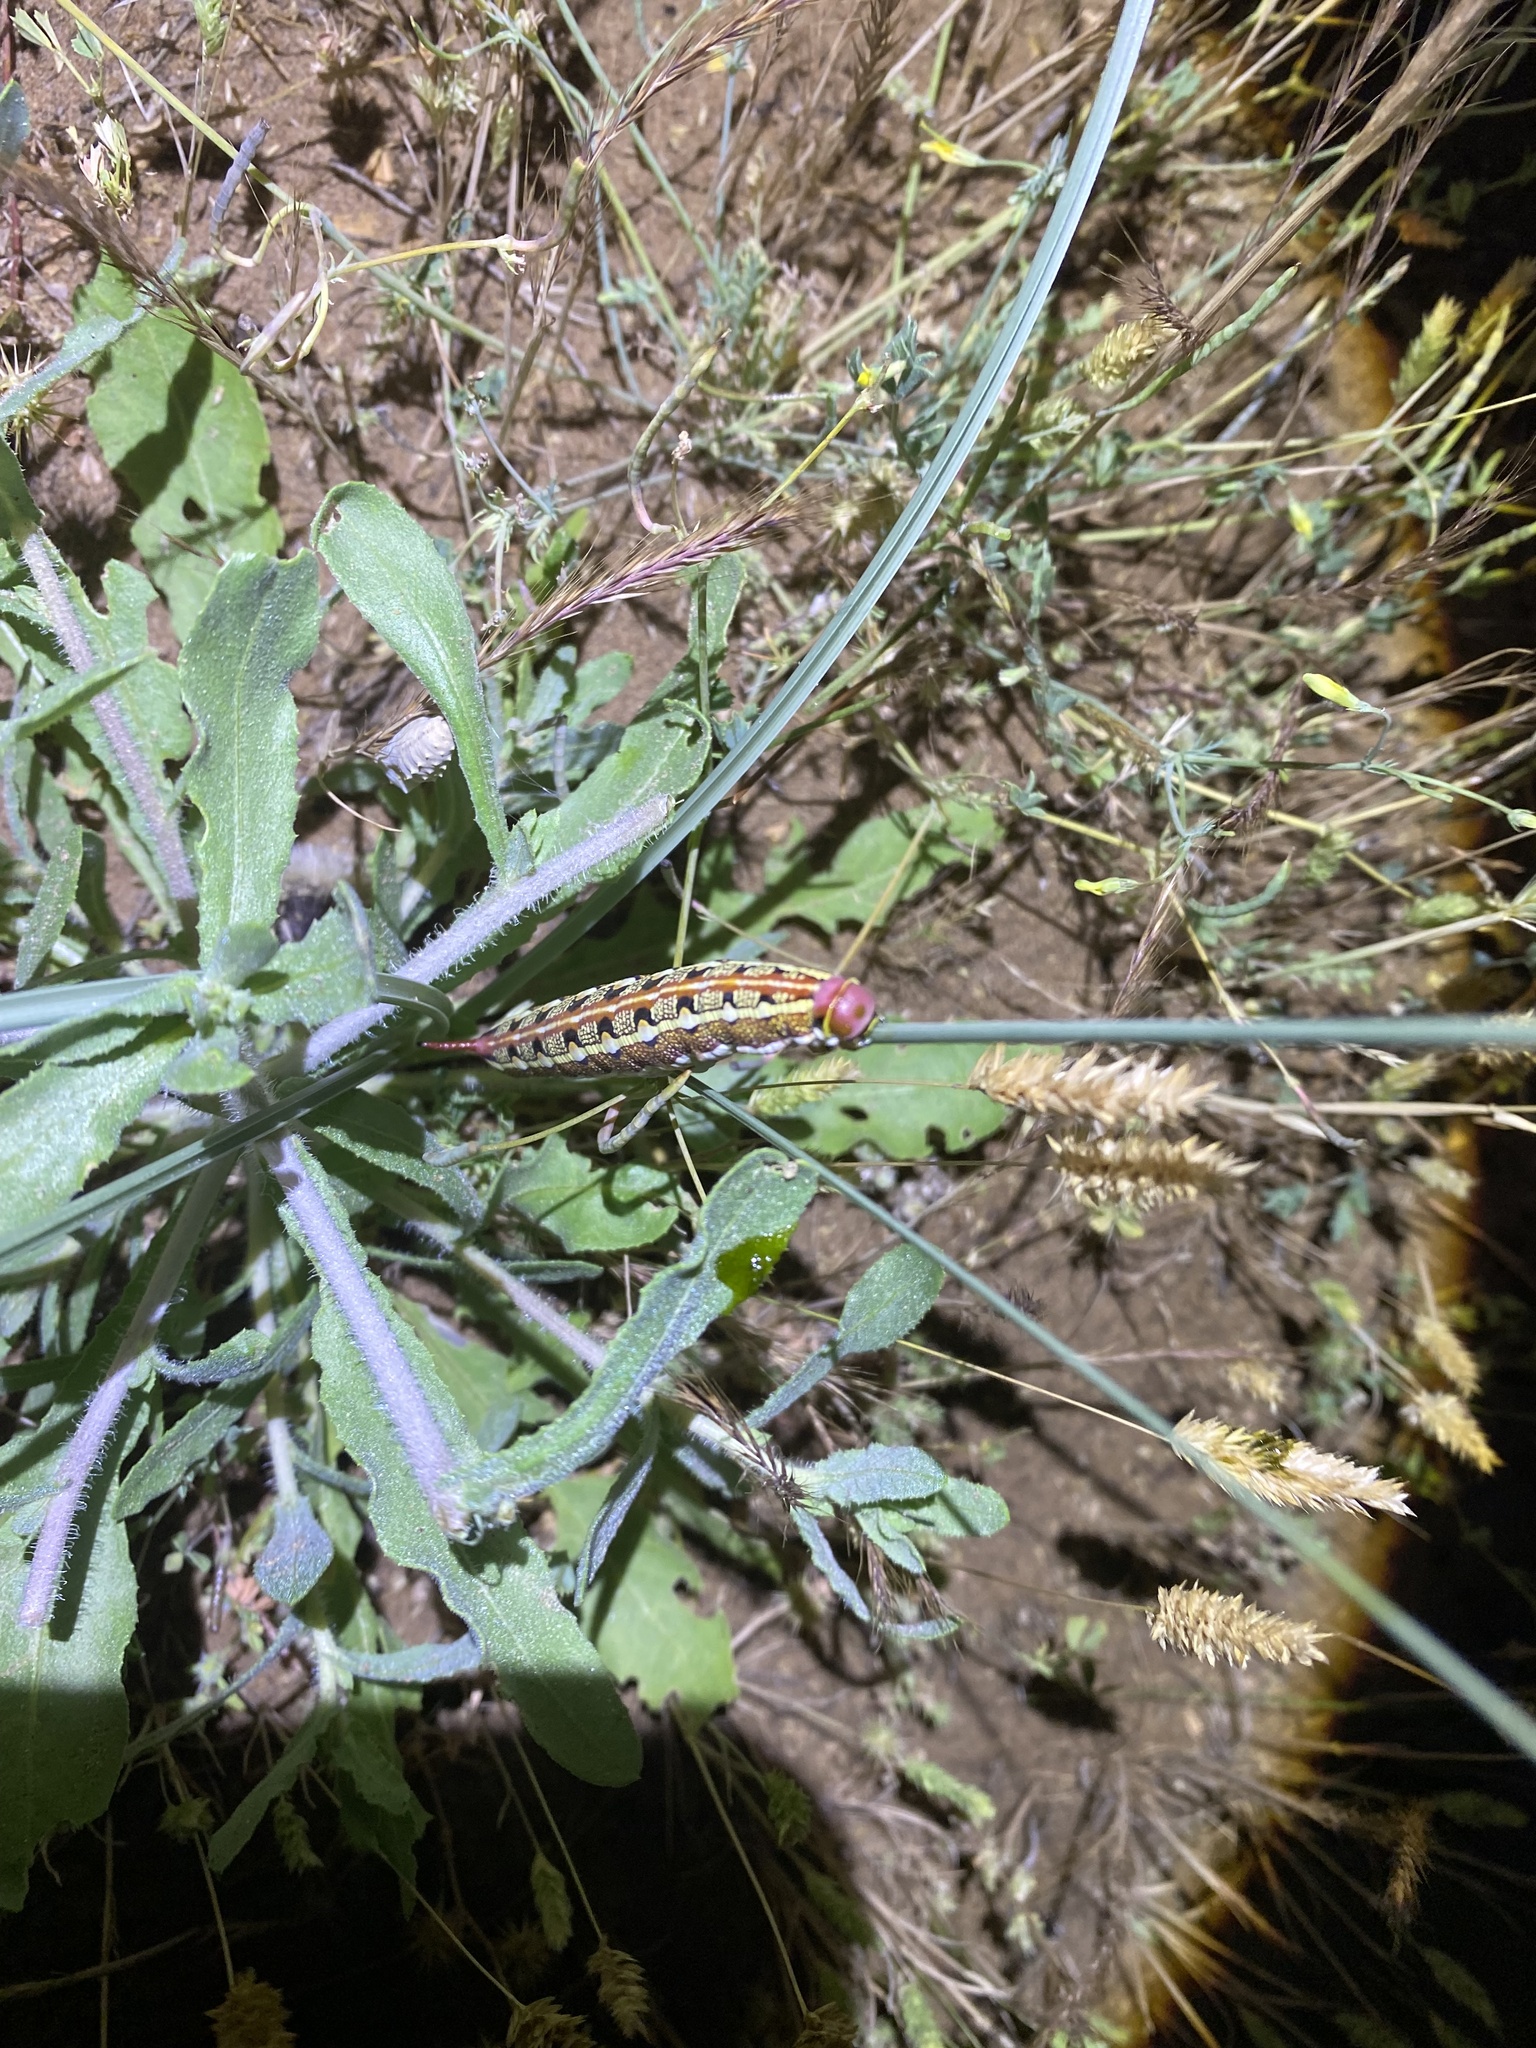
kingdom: Animalia
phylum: Arthropoda
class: Insecta
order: Lepidoptera
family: Sphingidae
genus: Hyles
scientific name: Hyles livornica
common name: Striped hawk-moth
